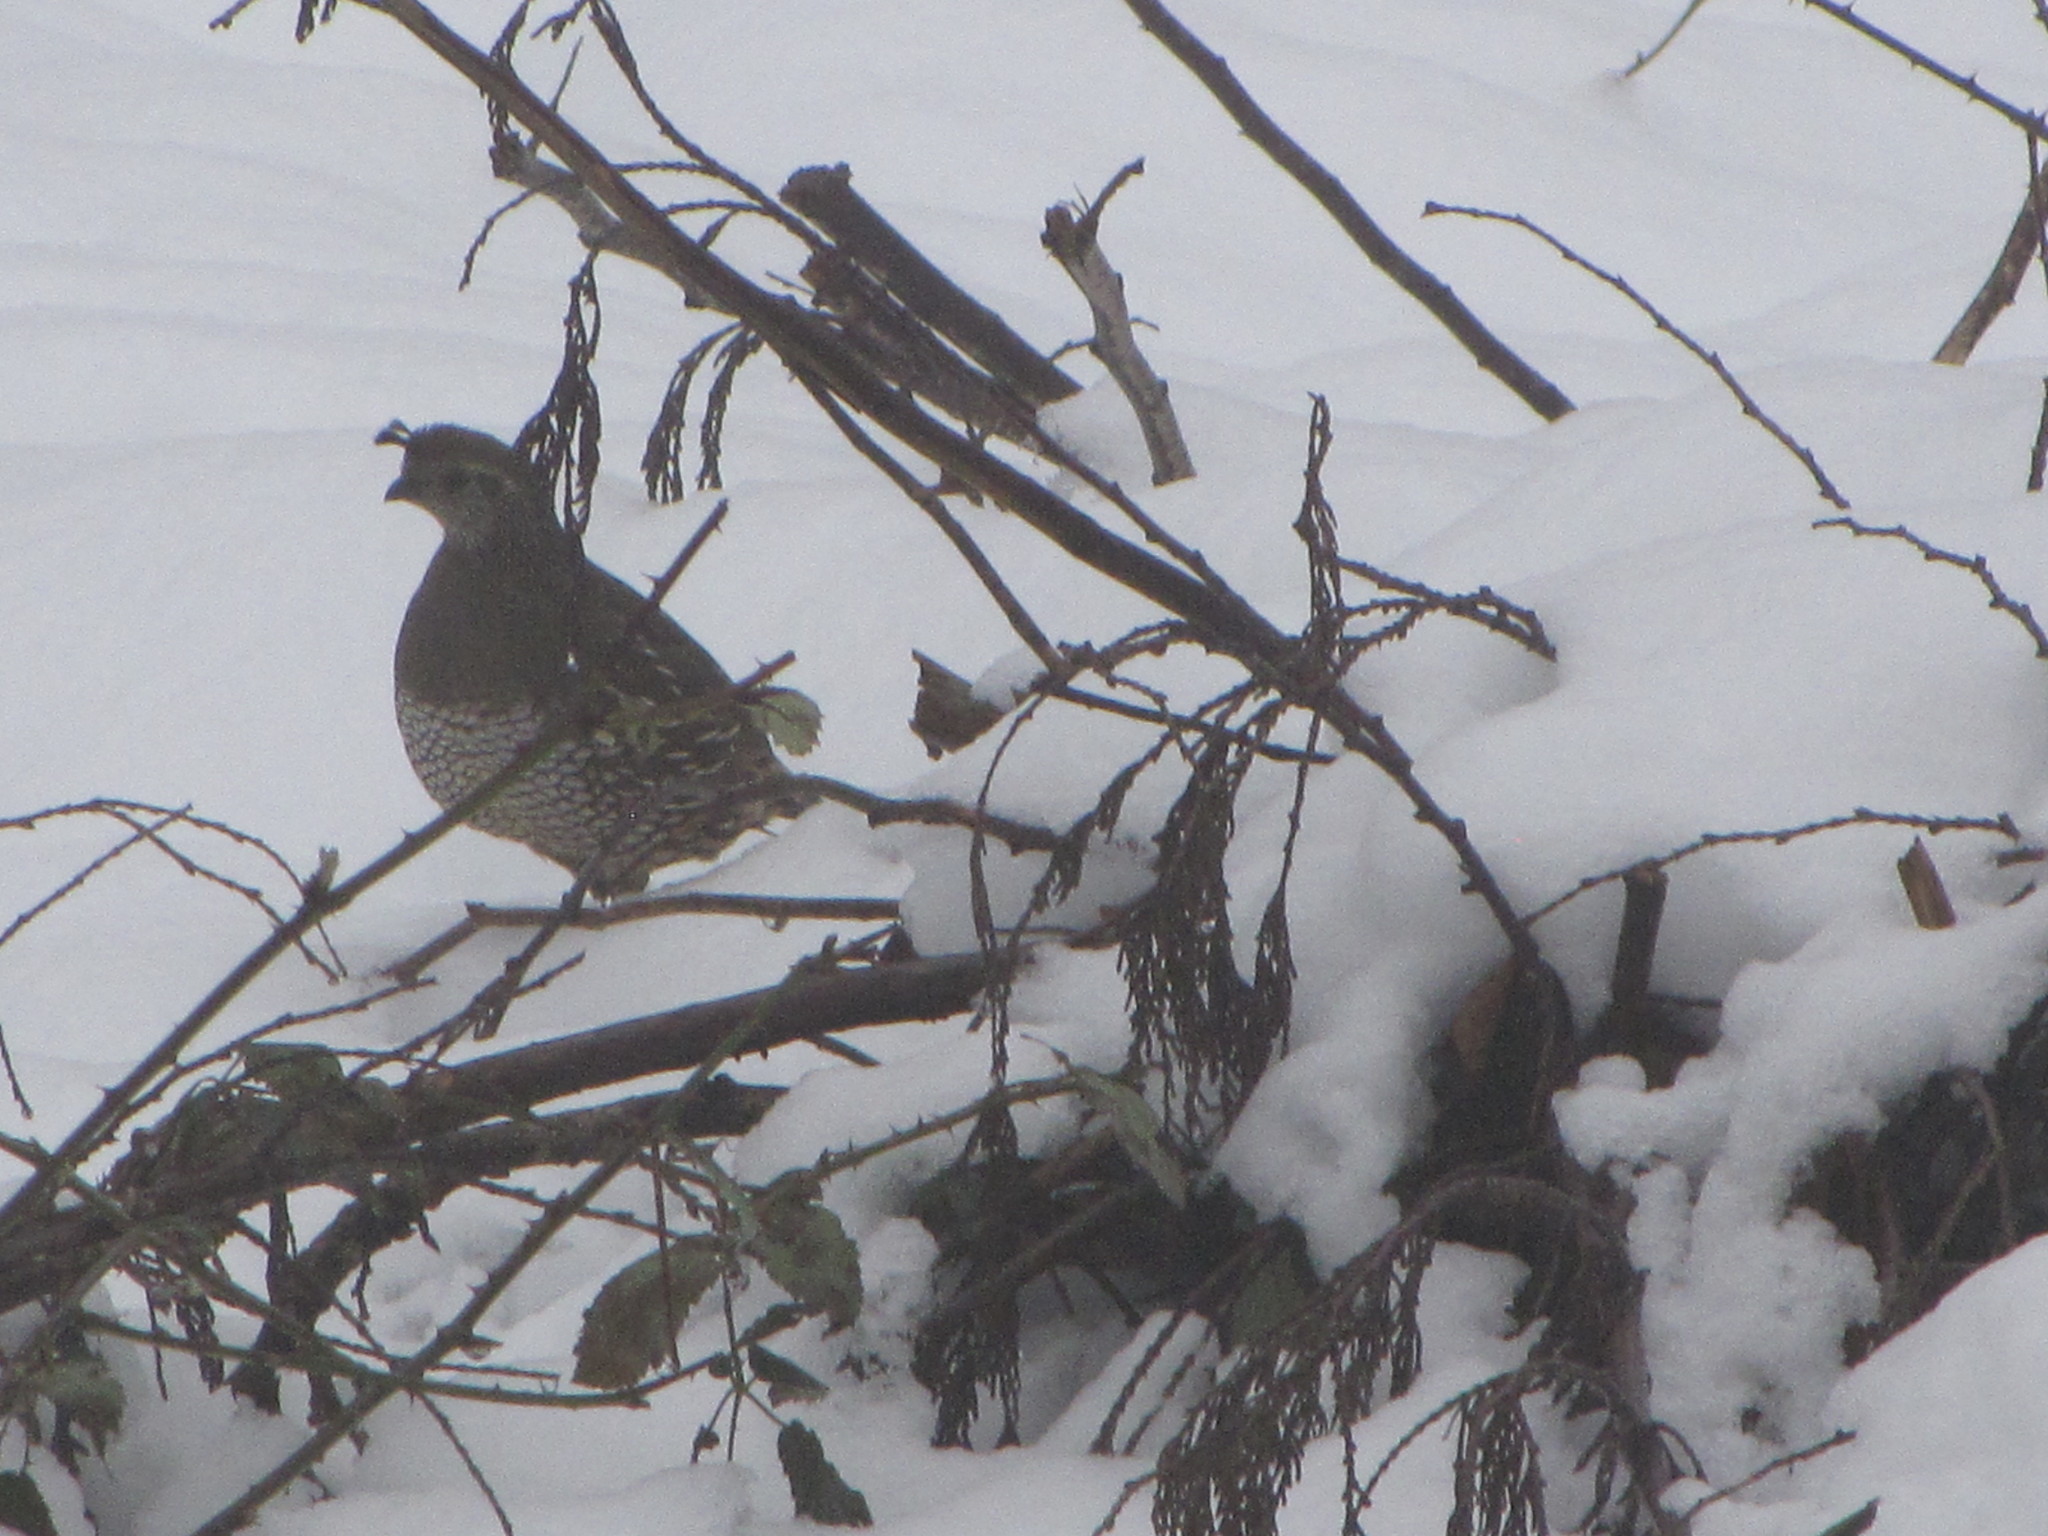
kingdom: Animalia
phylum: Chordata
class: Aves
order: Galliformes
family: Odontophoridae
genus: Callipepla
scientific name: Callipepla californica
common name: California quail
